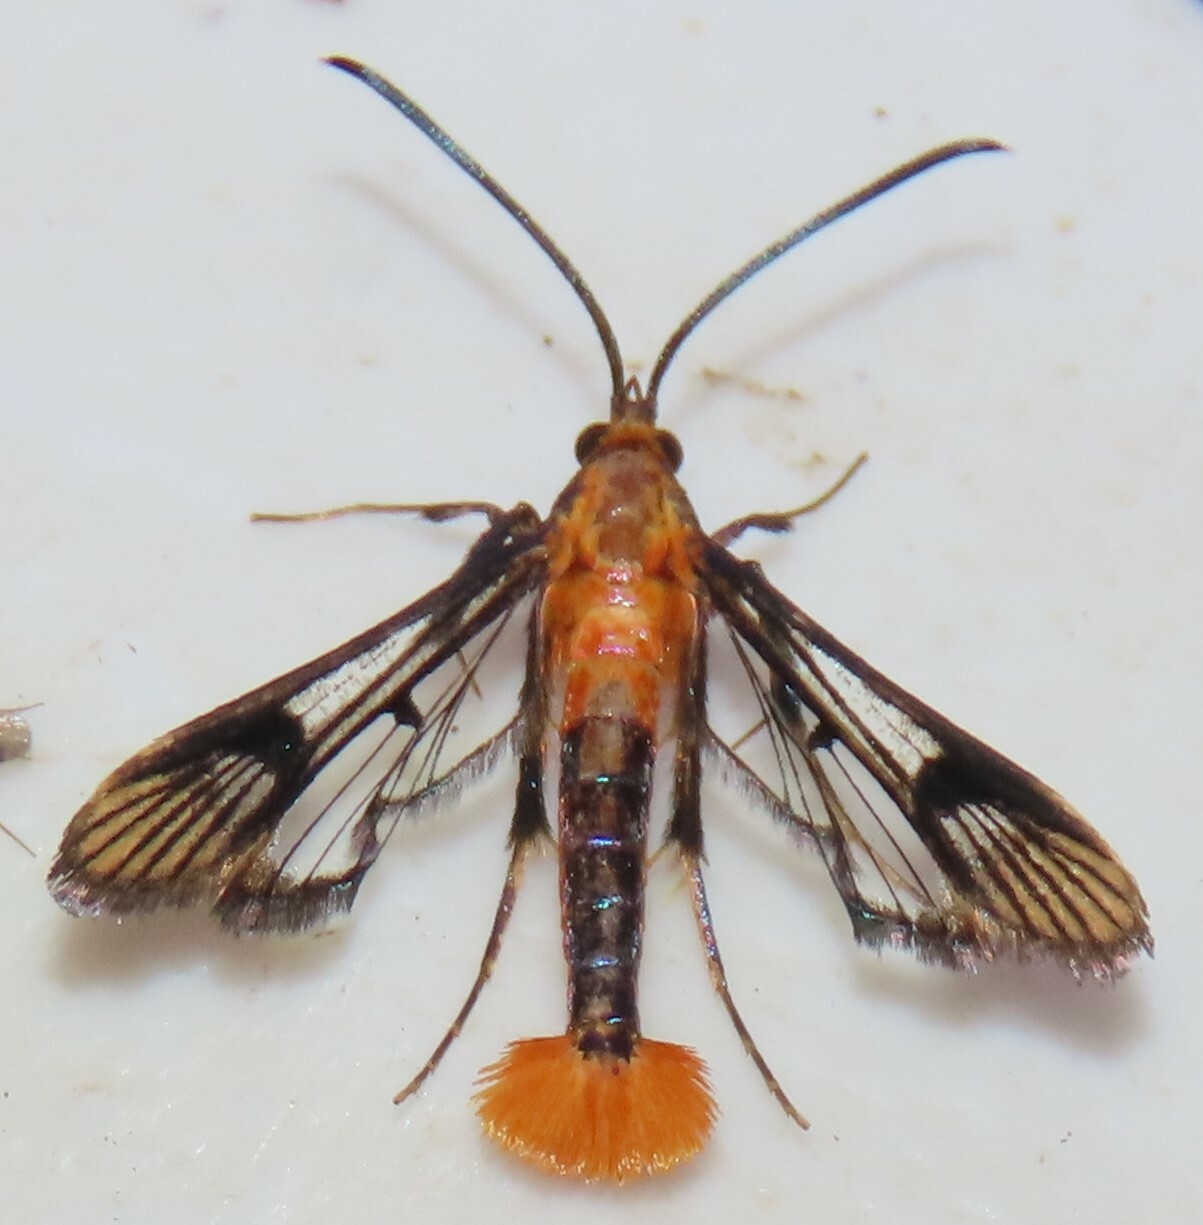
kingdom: Animalia
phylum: Arthropoda
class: Insecta
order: Lepidoptera
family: Sesiidae
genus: Synanthedon
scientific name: Synanthedon acerni
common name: Maple callus borer moth
